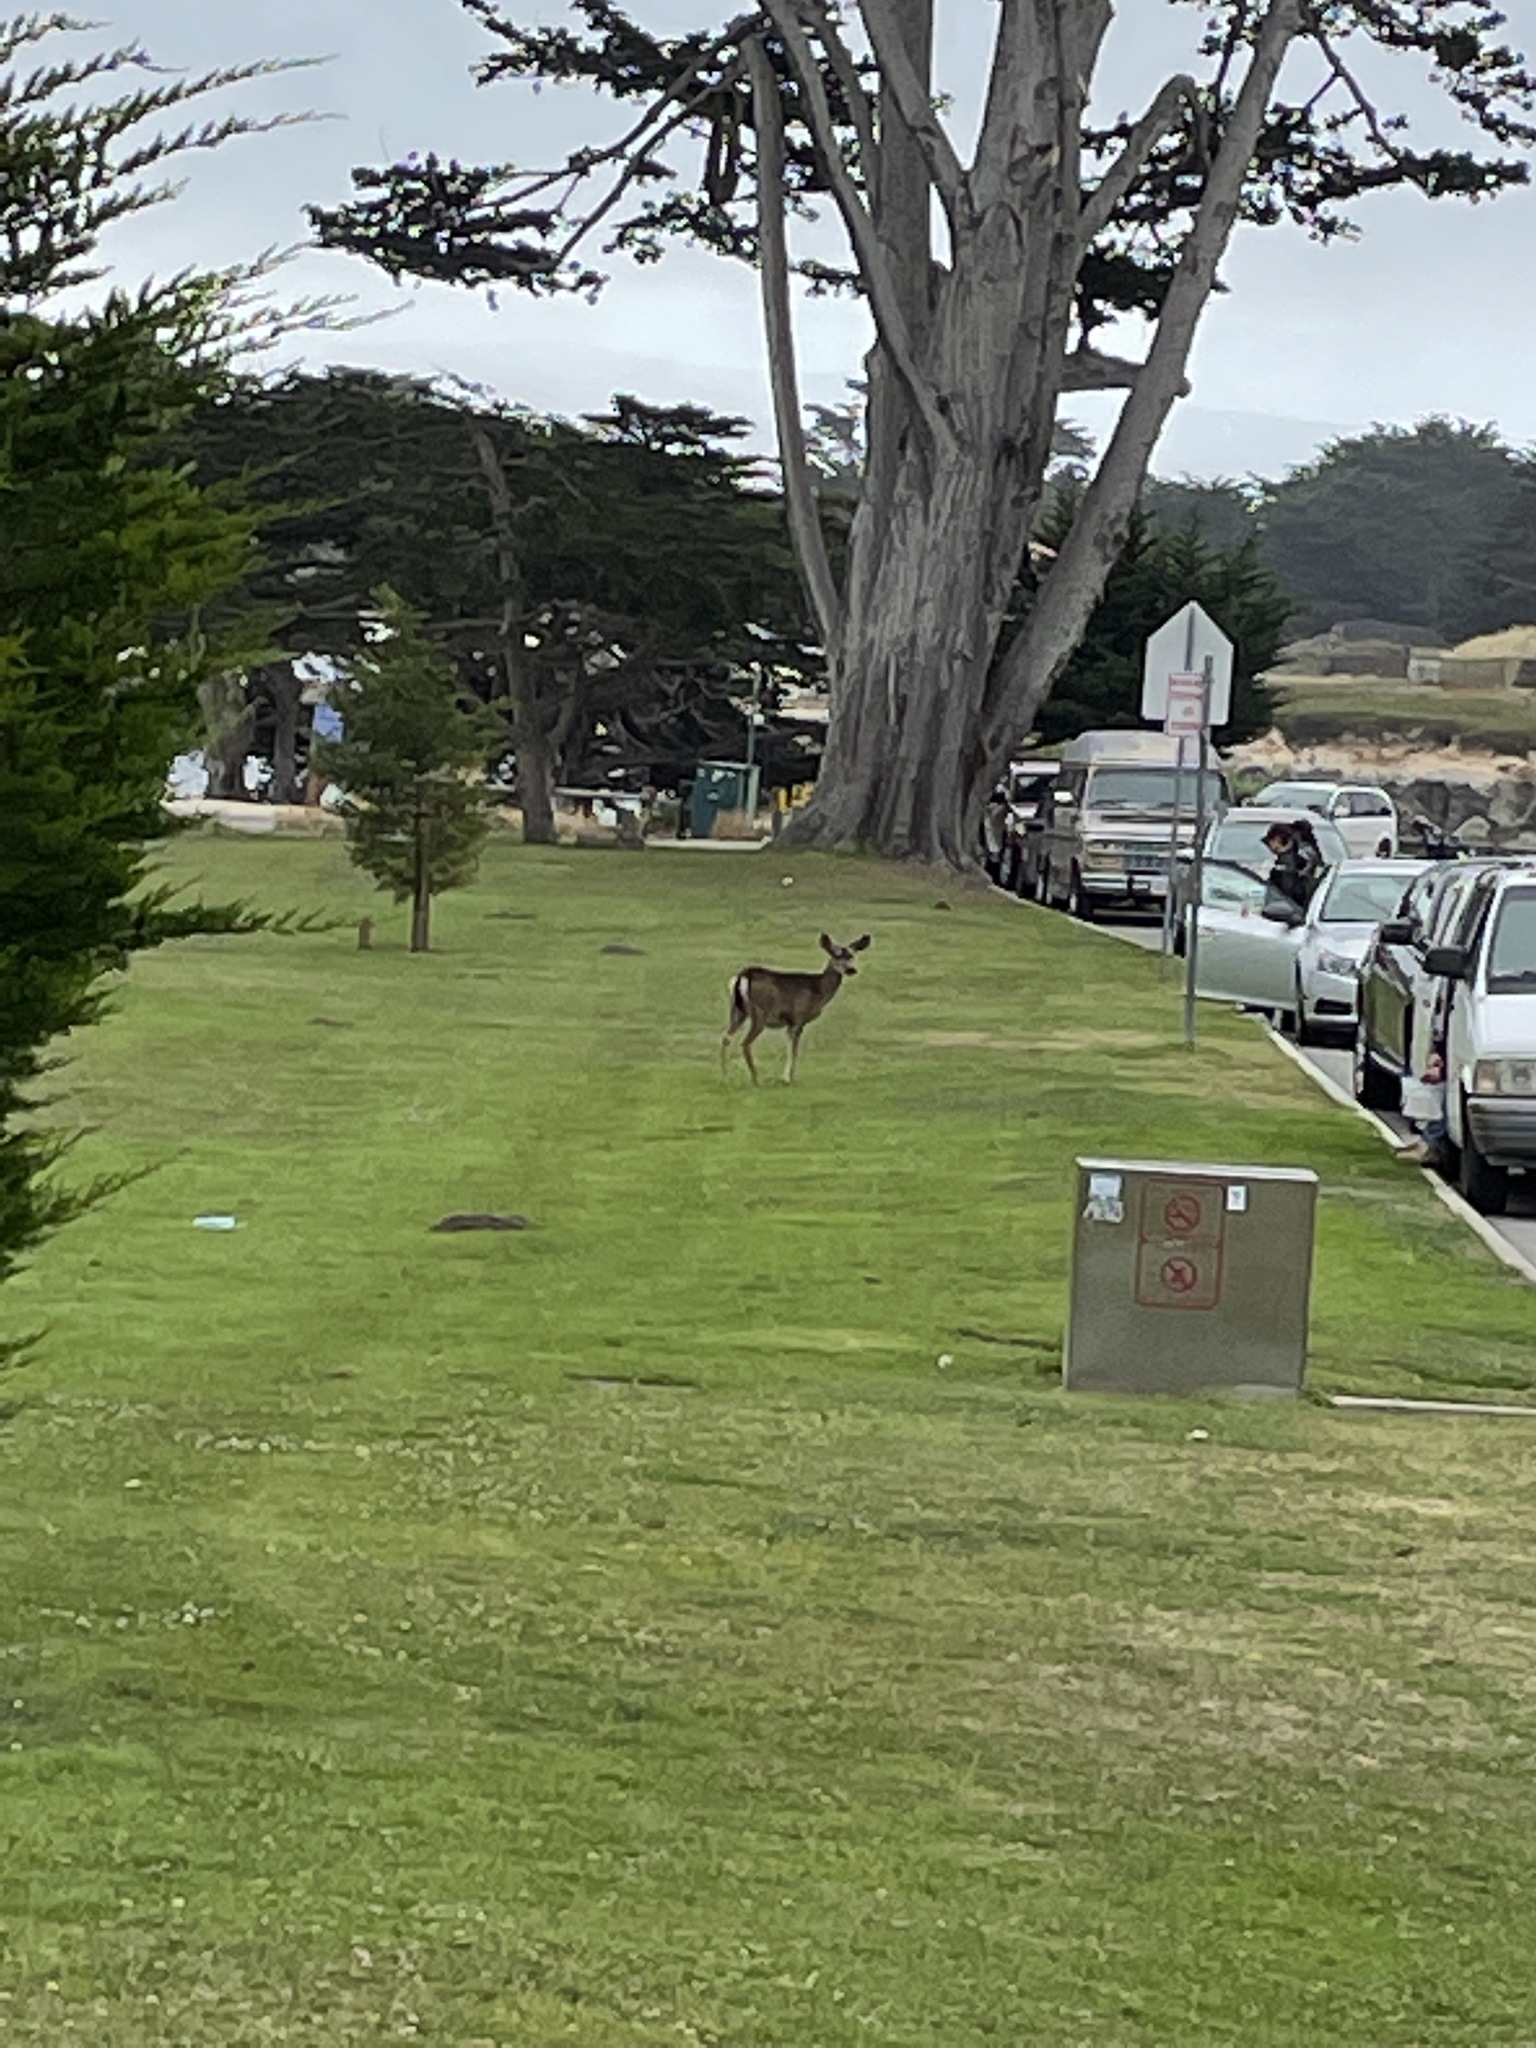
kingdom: Animalia
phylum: Chordata
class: Mammalia
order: Artiodactyla
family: Cervidae
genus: Odocoileus
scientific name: Odocoileus hemionus
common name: Mule deer
